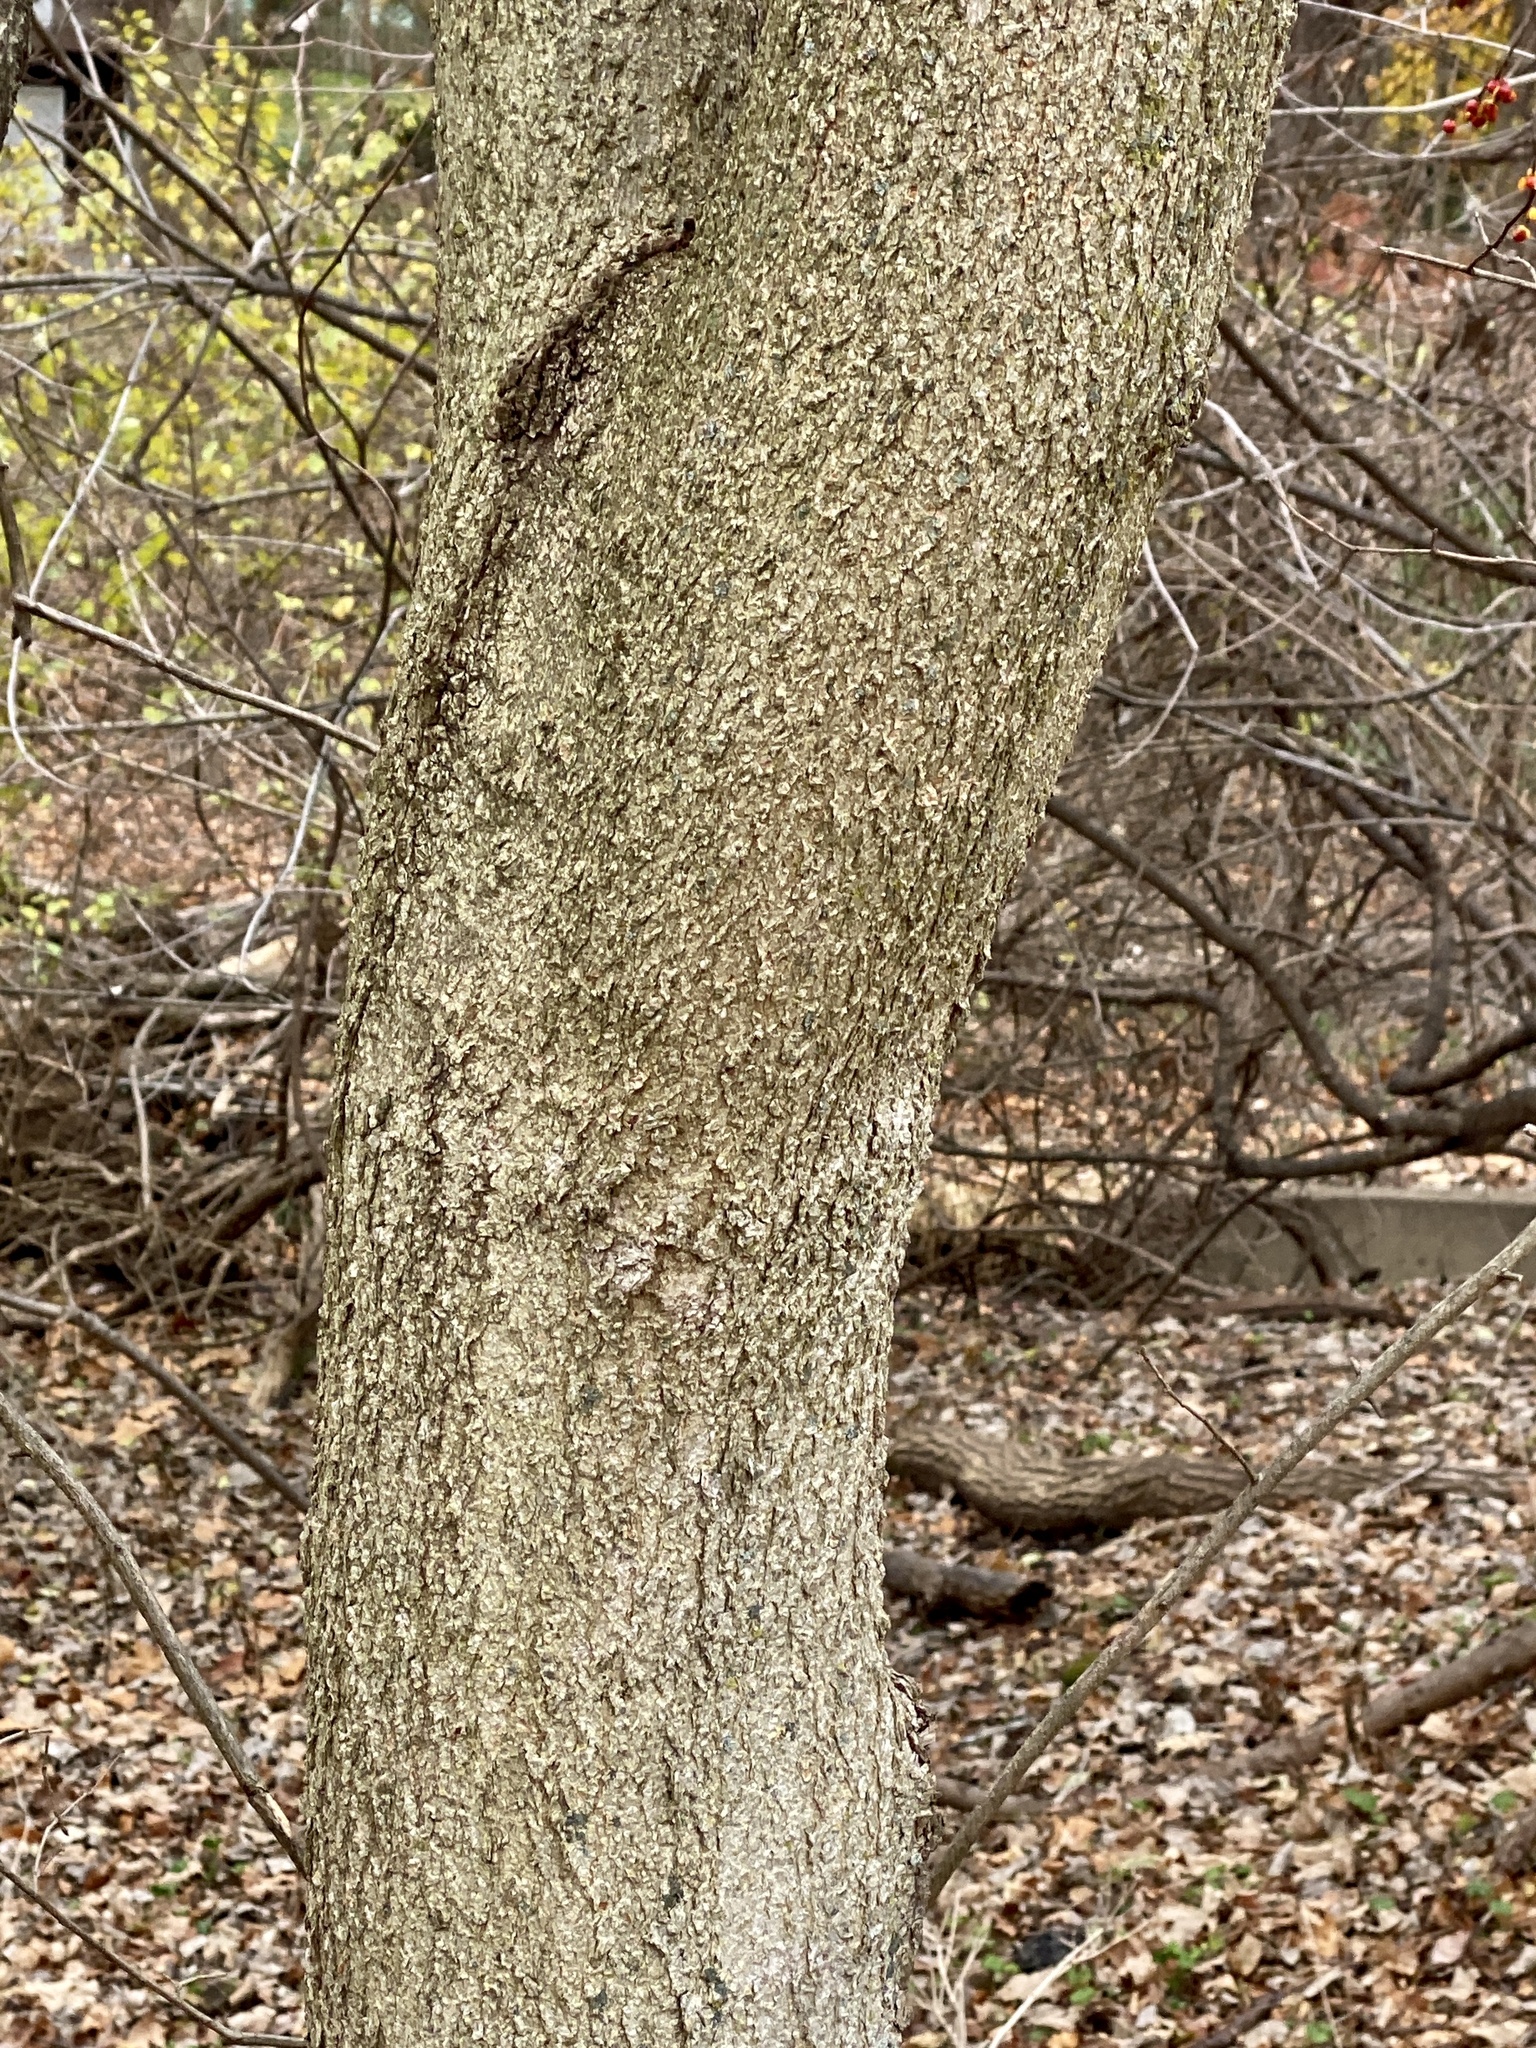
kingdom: Plantae
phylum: Tracheophyta
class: Magnoliopsida
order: Sapindales
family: Sapindaceae
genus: Aesculus
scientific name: Aesculus flava
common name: Yellow buckeye
